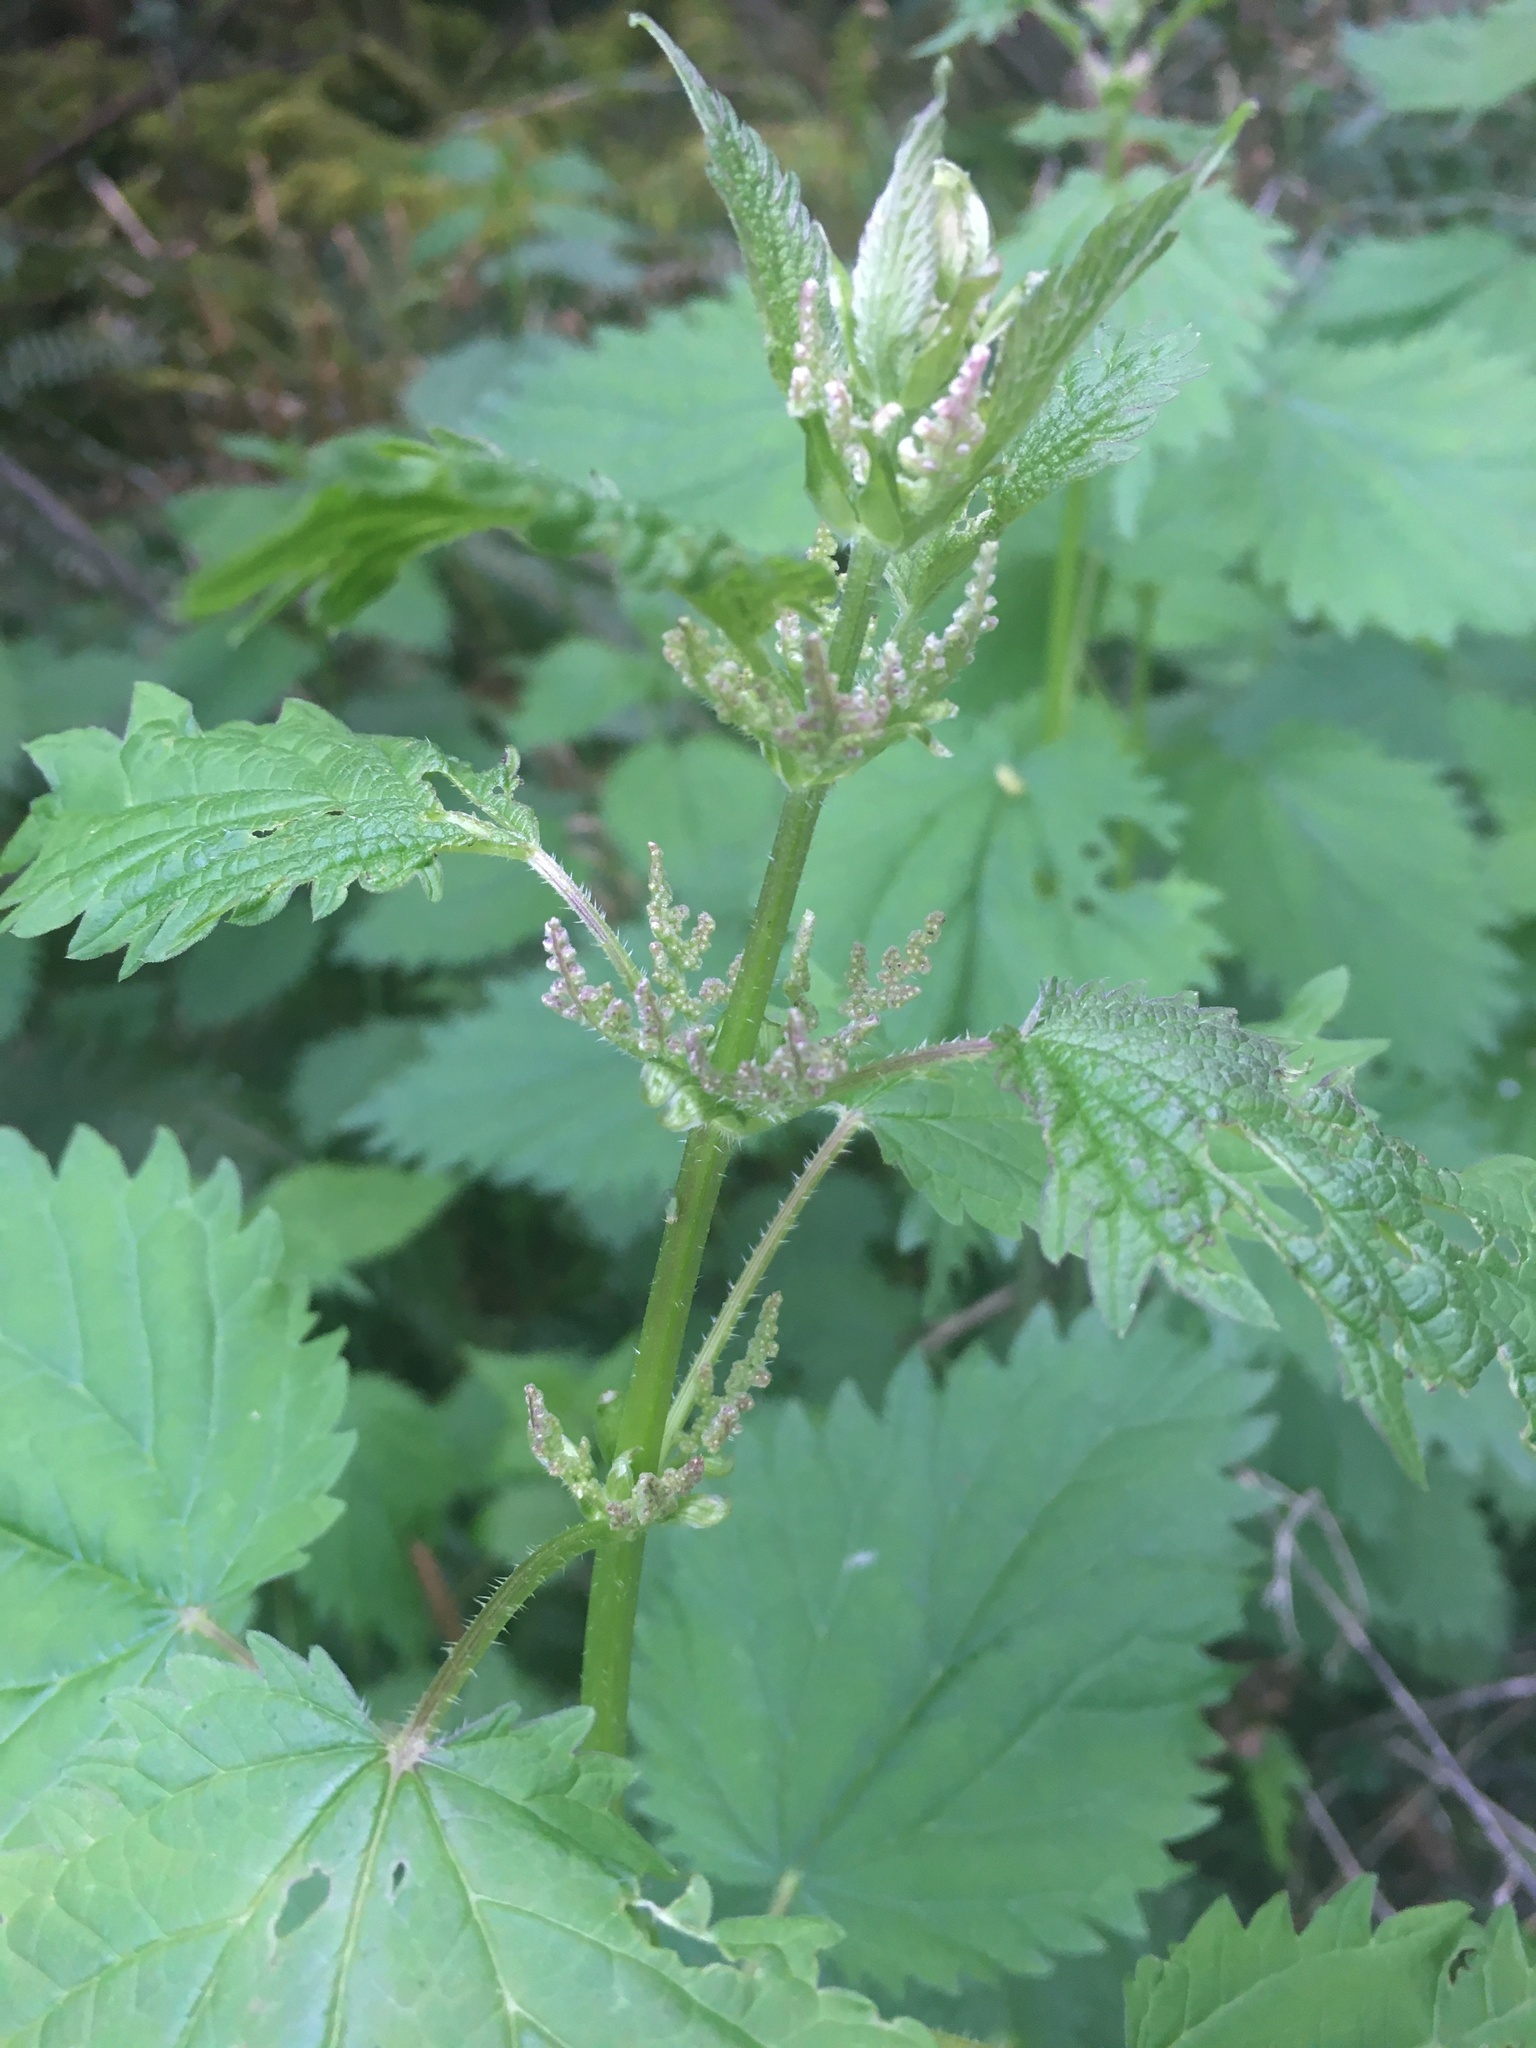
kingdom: Plantae
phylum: Tracheophyta
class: Magnoliopsida
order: Rosales
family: Urticaceae
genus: Urtica
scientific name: Urtica dioica
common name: Common nettle
